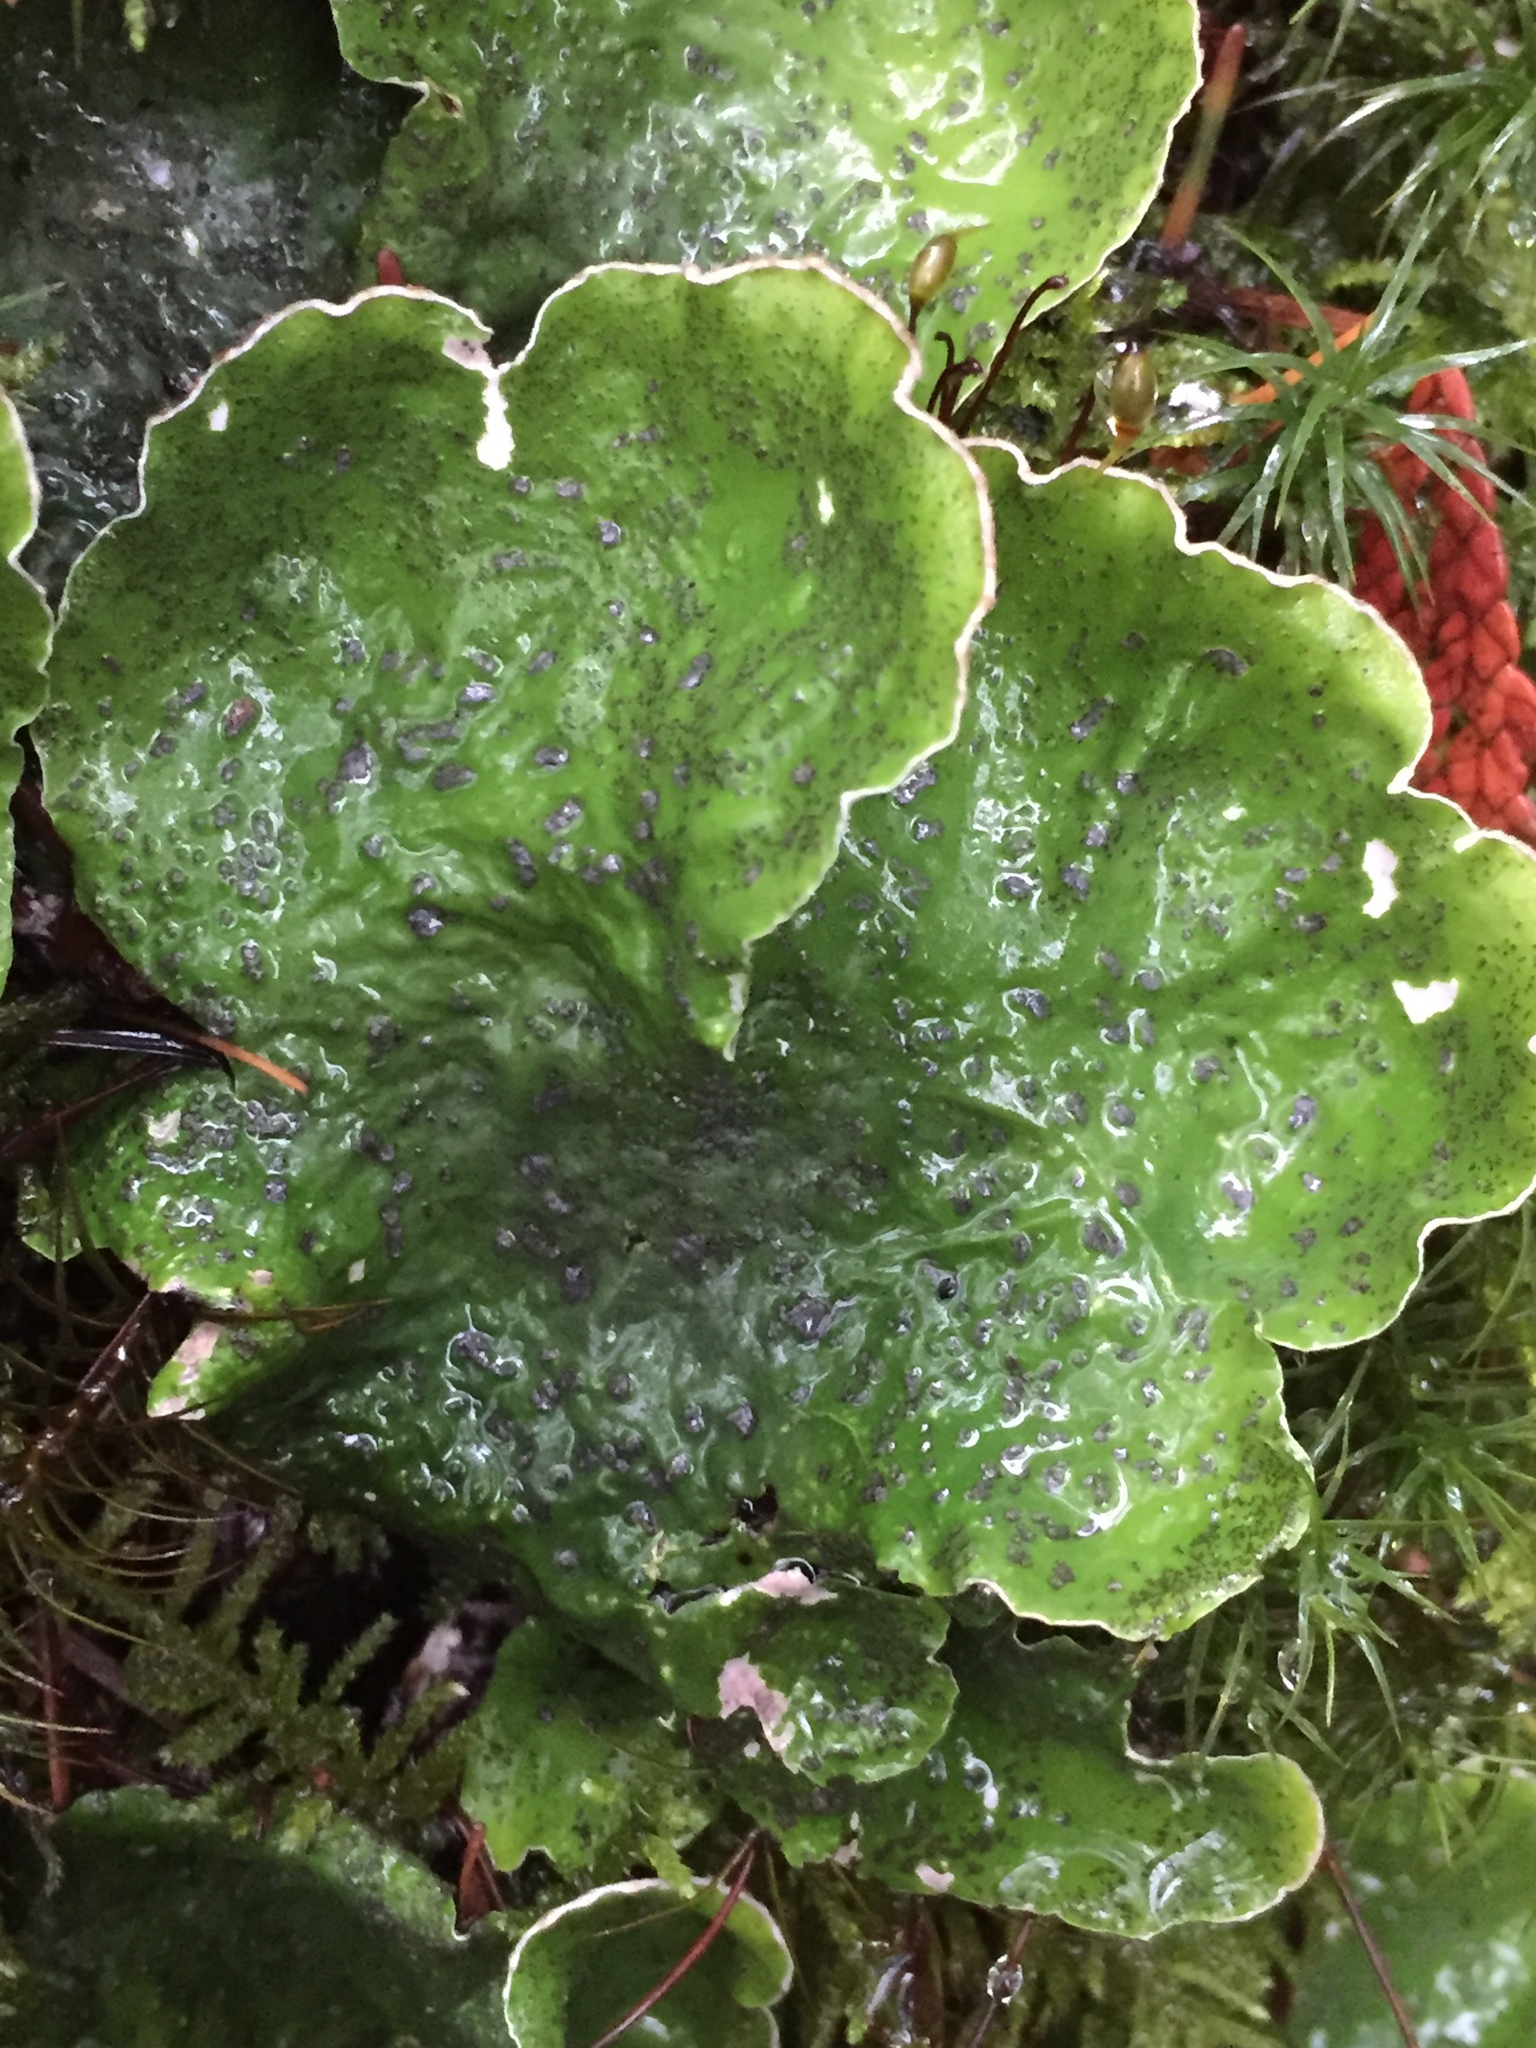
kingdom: Fungi
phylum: Ascomycota
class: Lecanoromycetes
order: Peltigerales
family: Peltigeraceae
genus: Peltigera
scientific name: Peltigera aphthosa
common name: Common freckle pelt lichen
